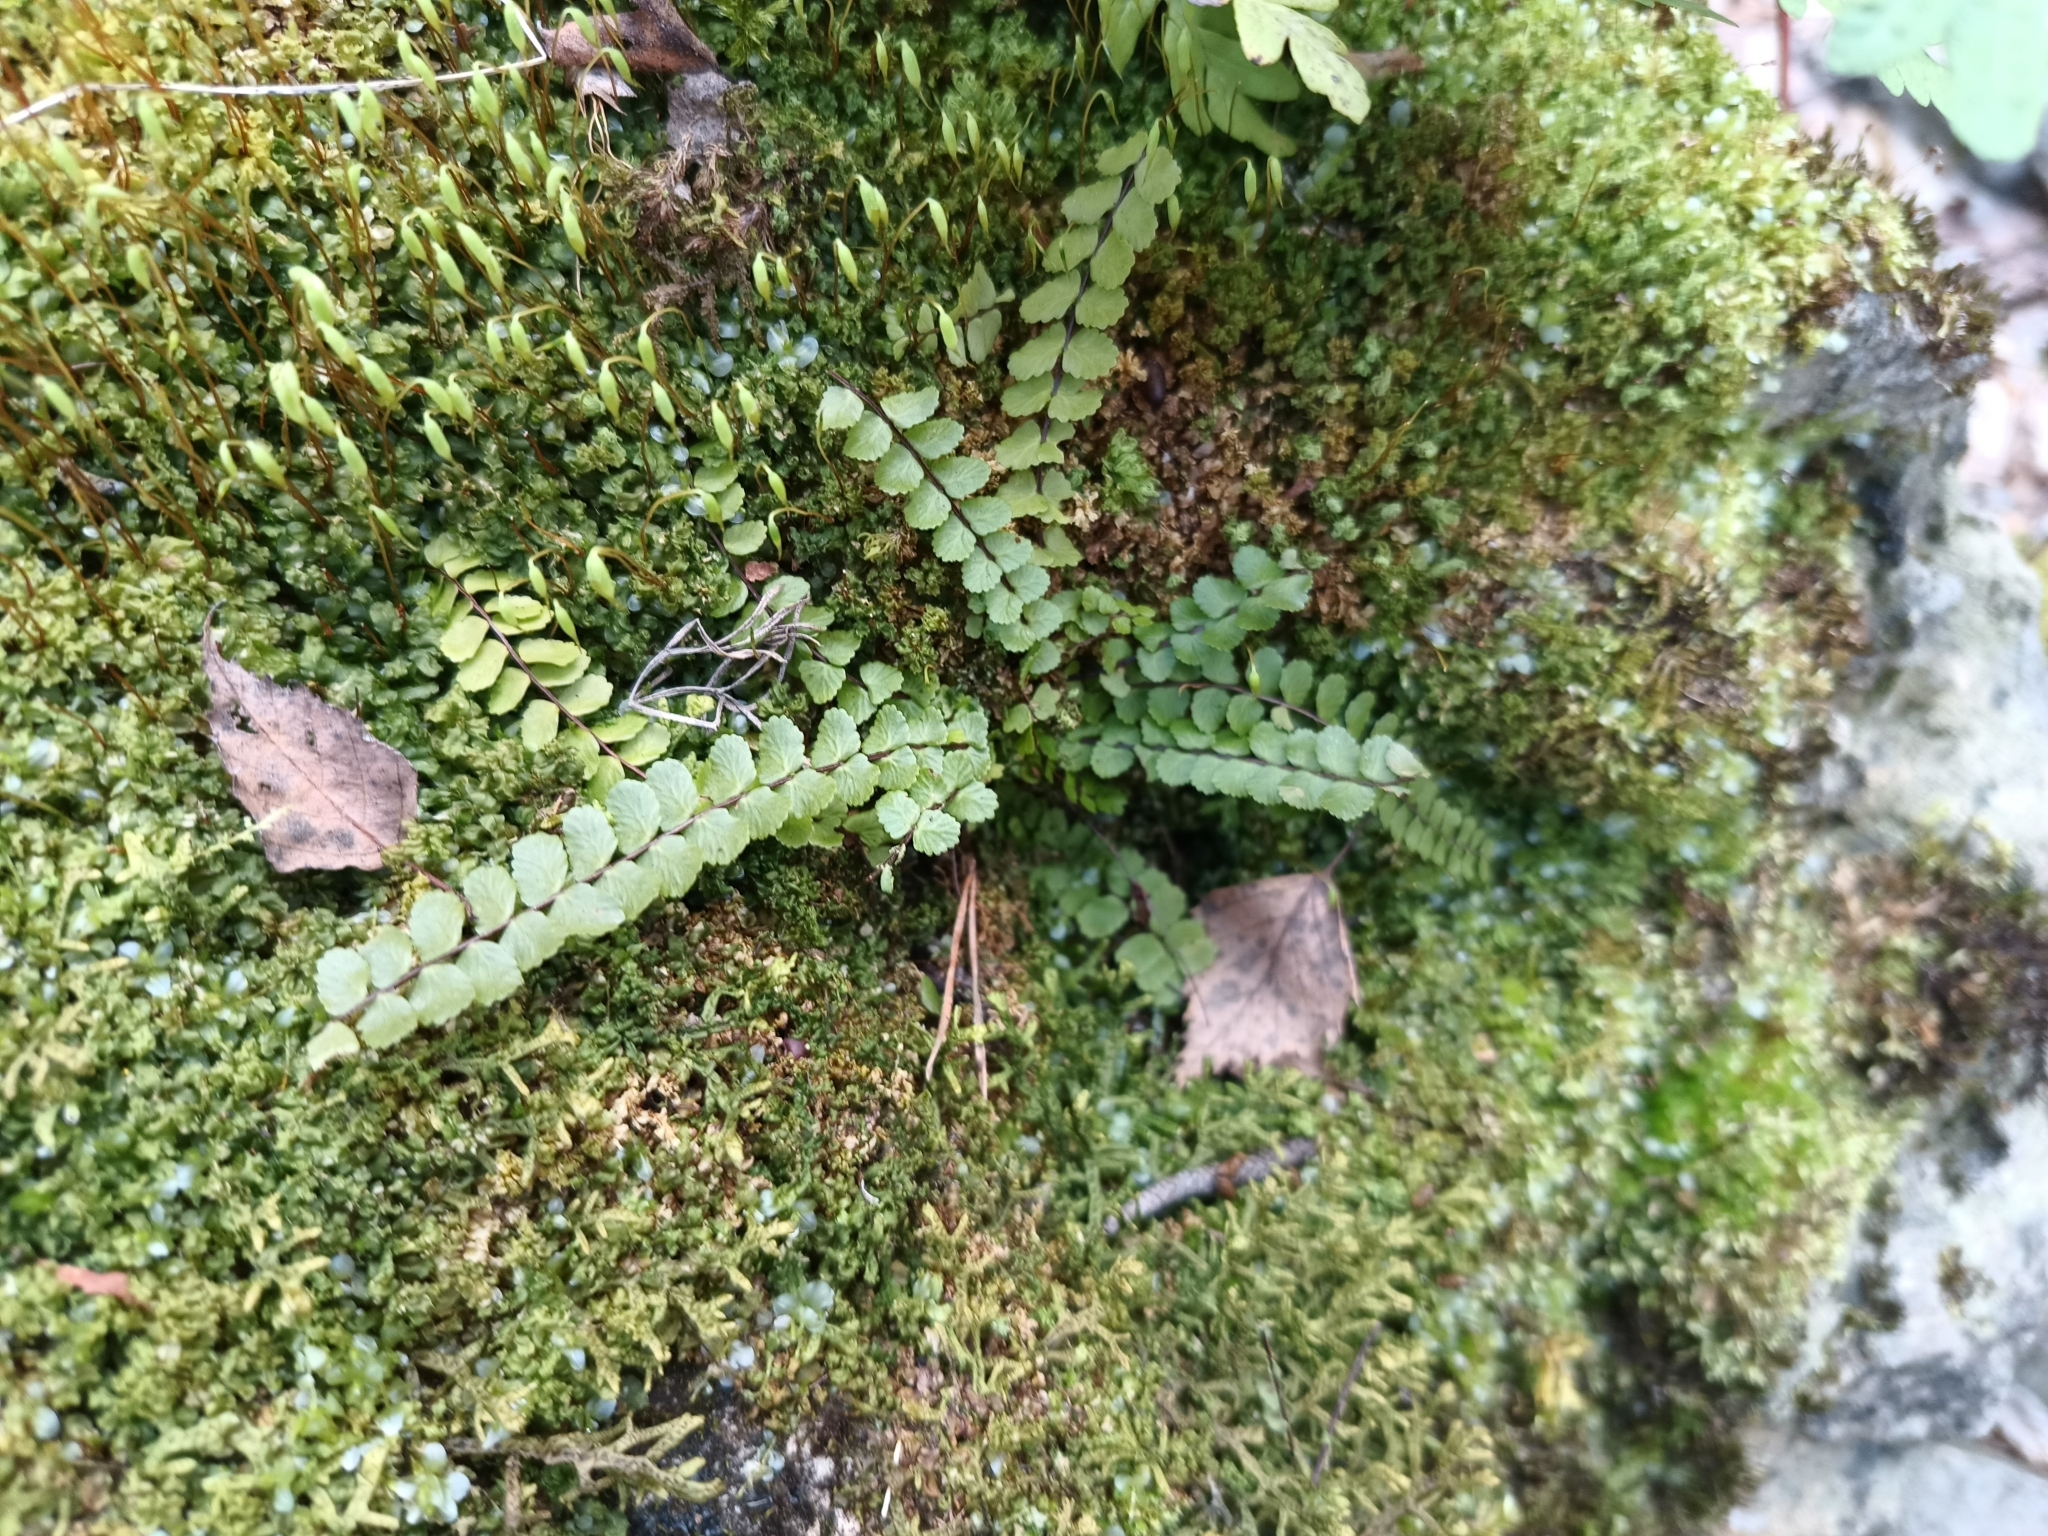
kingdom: Plantae
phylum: Tracheophyta
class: Polypodiopsida
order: Polypodiales
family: Aspleniaceae
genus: Asplenium
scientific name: Asplenium trichomanes
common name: Maidenhair spleenwort
